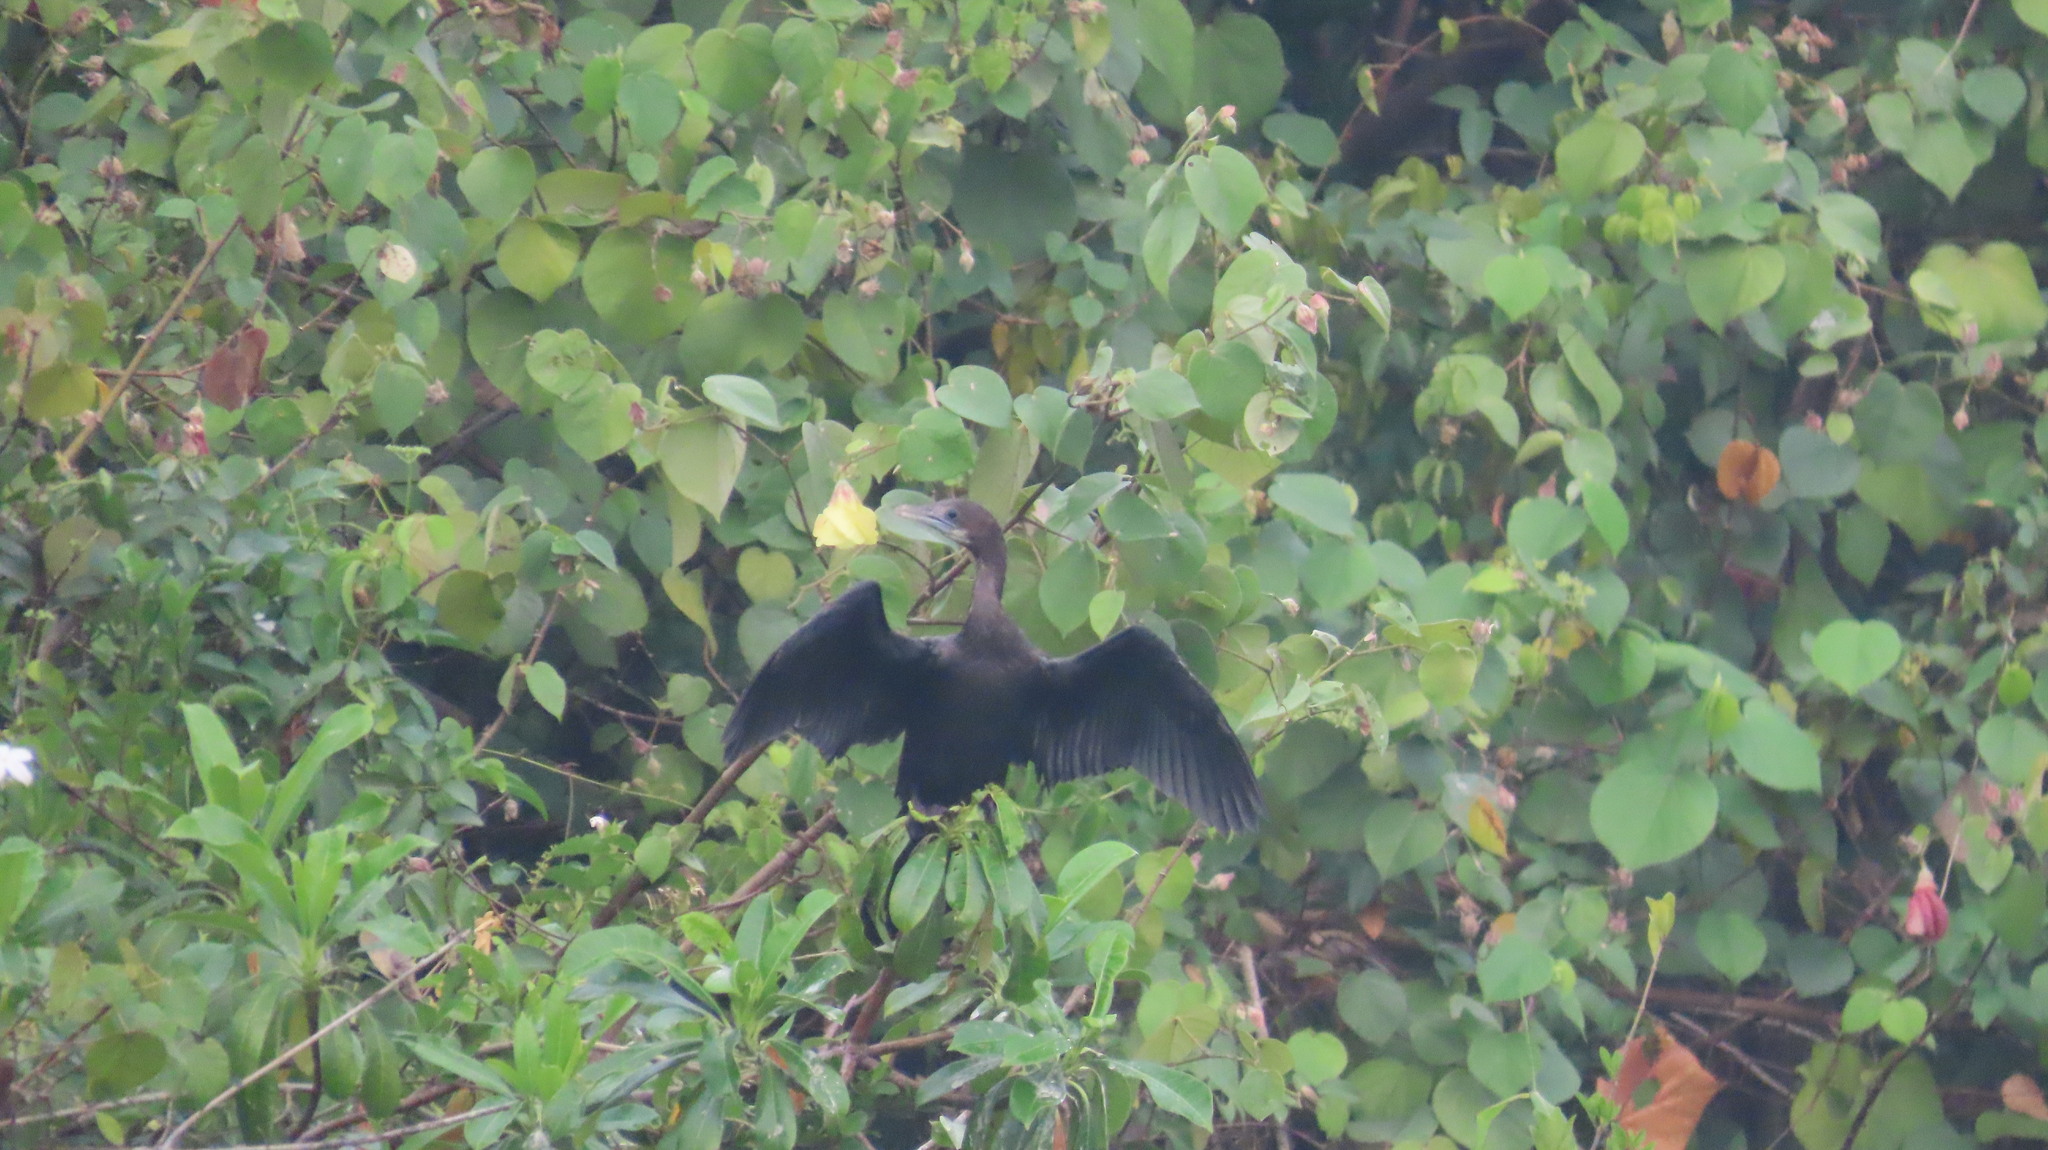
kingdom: Animalia
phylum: Chordata
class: Aves
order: Suliformes
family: Phalacrocoracidae
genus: Microcarbo
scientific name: Microcarbo niger
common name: Little cormorant
